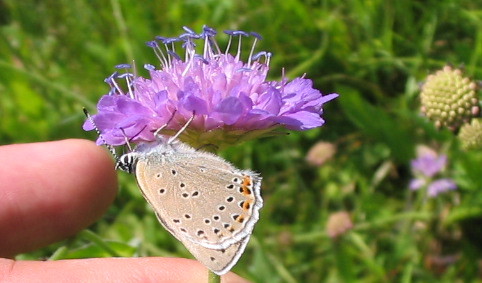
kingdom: Animalia
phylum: Arthropoda
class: Insecta
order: Lepidoptera
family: Lycaenidae
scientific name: Lycaenidae
